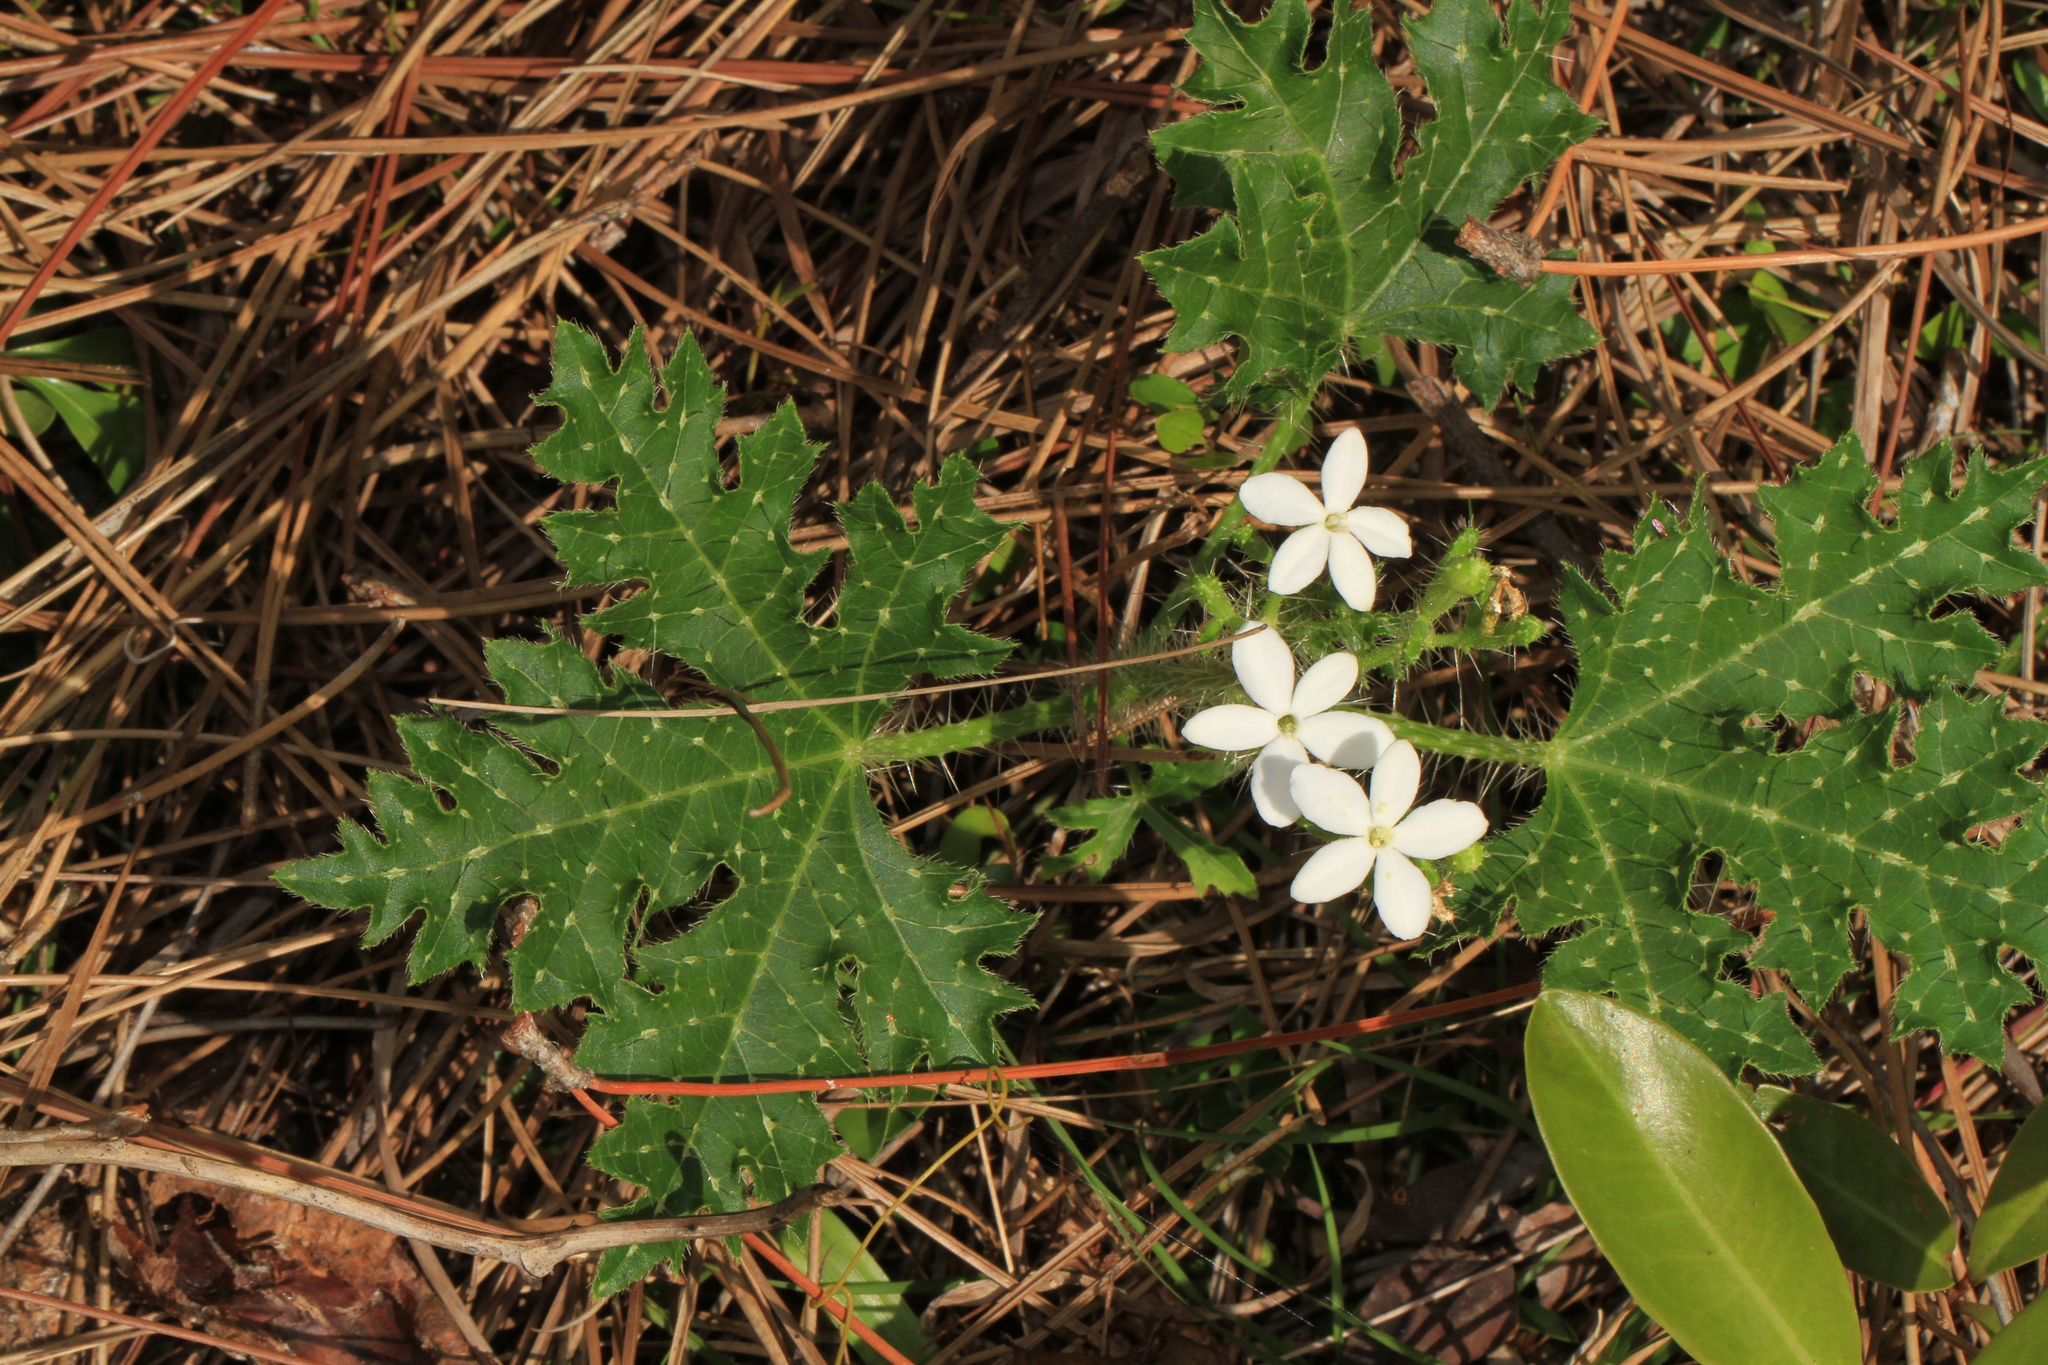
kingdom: Plantae
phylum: Tracheophyta
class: Magnoliopsida
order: Malpighiales
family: Euphorbiaceae
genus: Cnidoscolus
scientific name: Cnidoscolus stimulosus
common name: Bull-nettle
